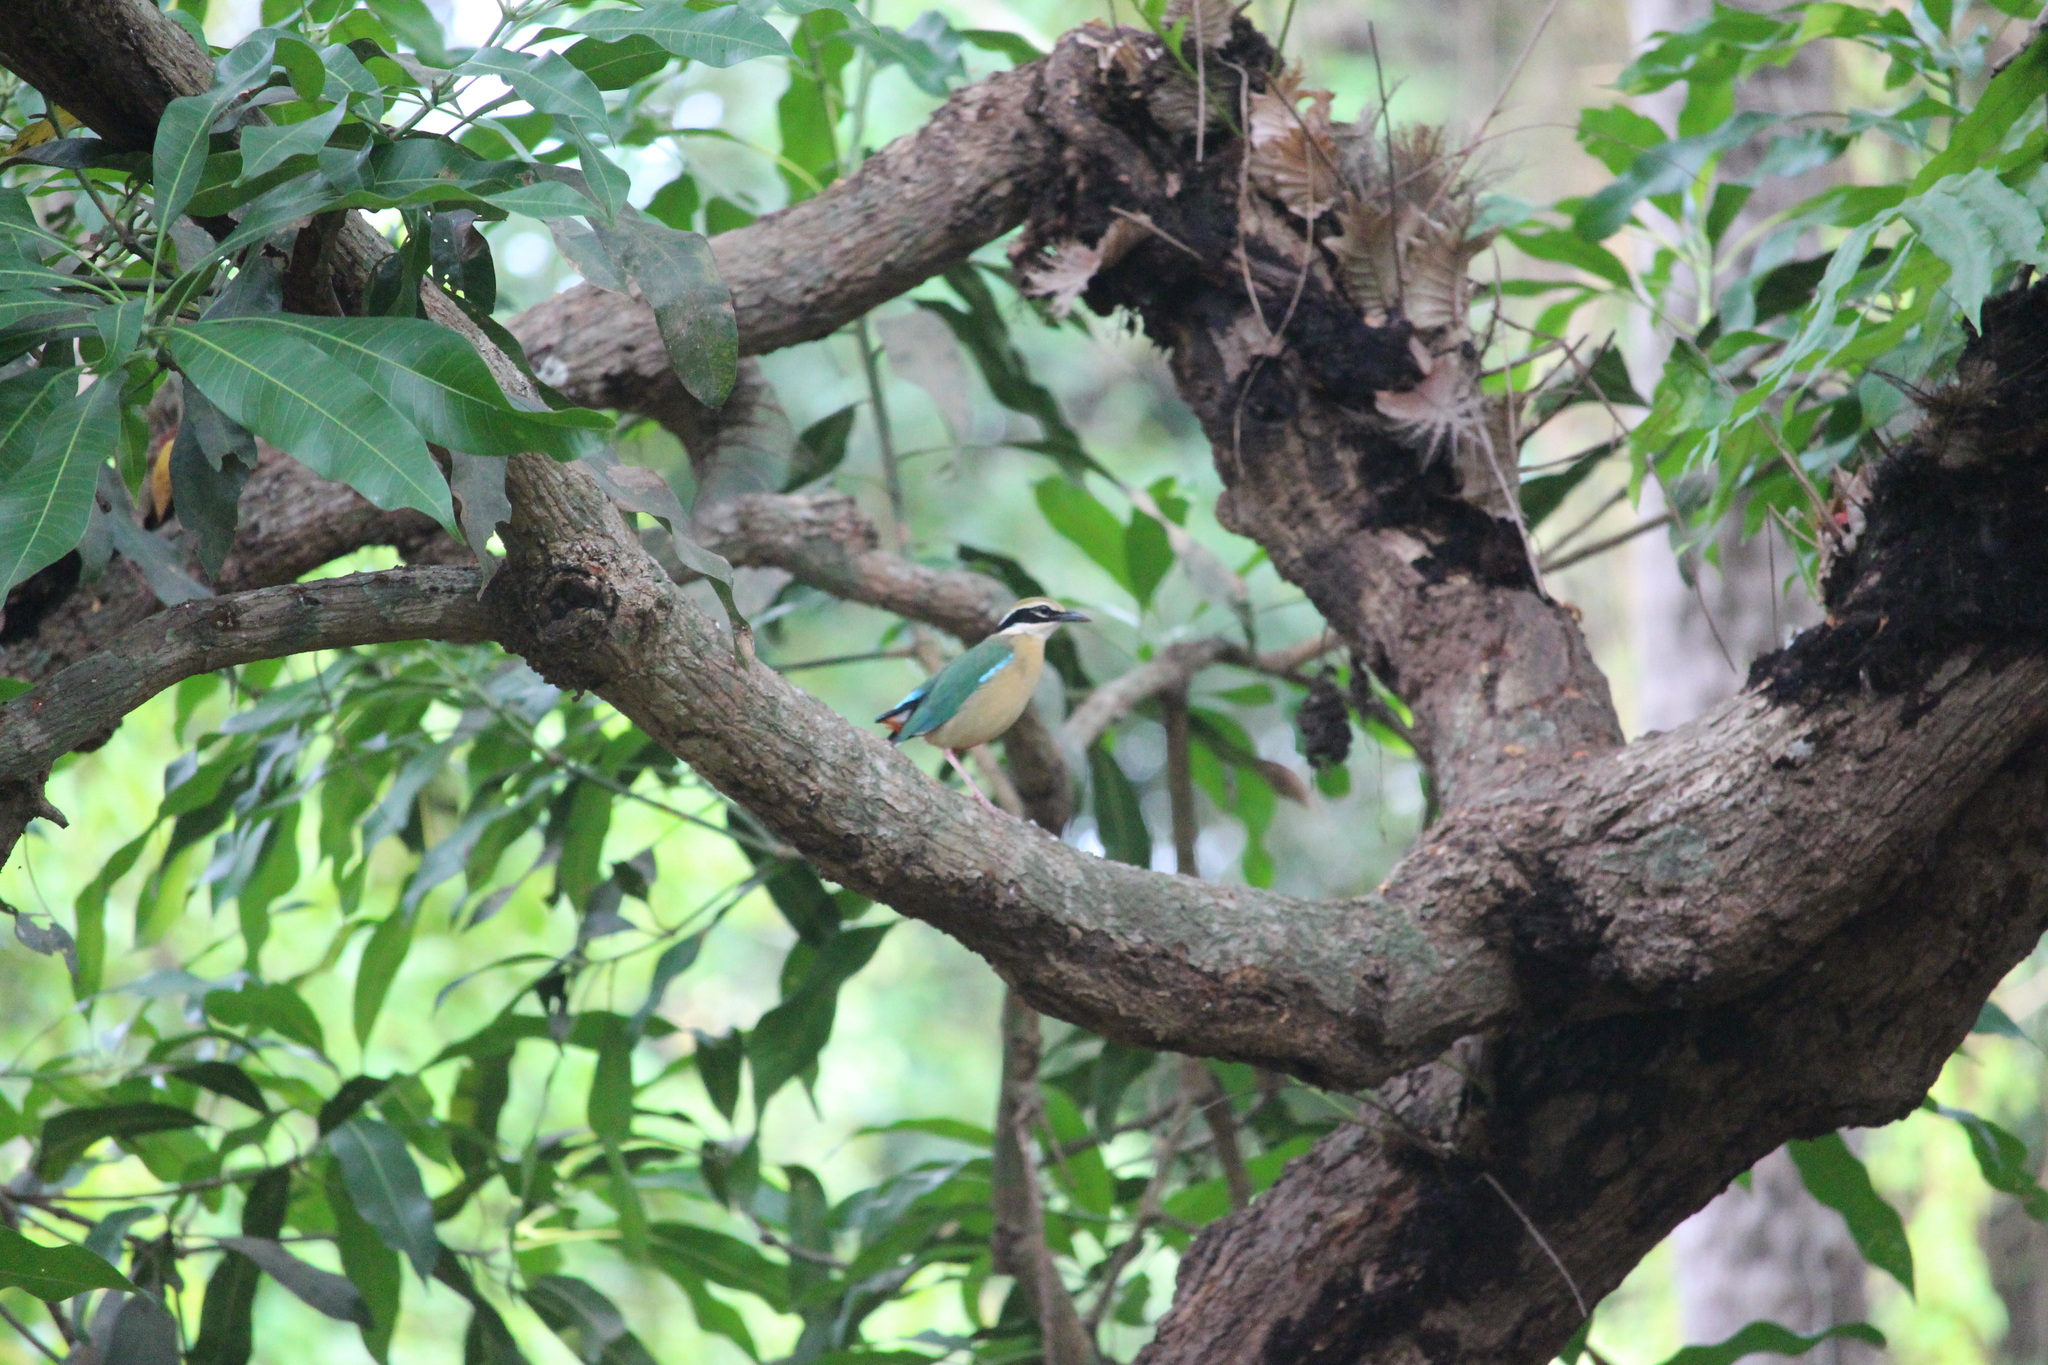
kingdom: Animalia
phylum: Chordata
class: Aves
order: Passeriformes
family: Pittidae
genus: Pitta
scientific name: Pitta brachyura
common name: Indian pitta
